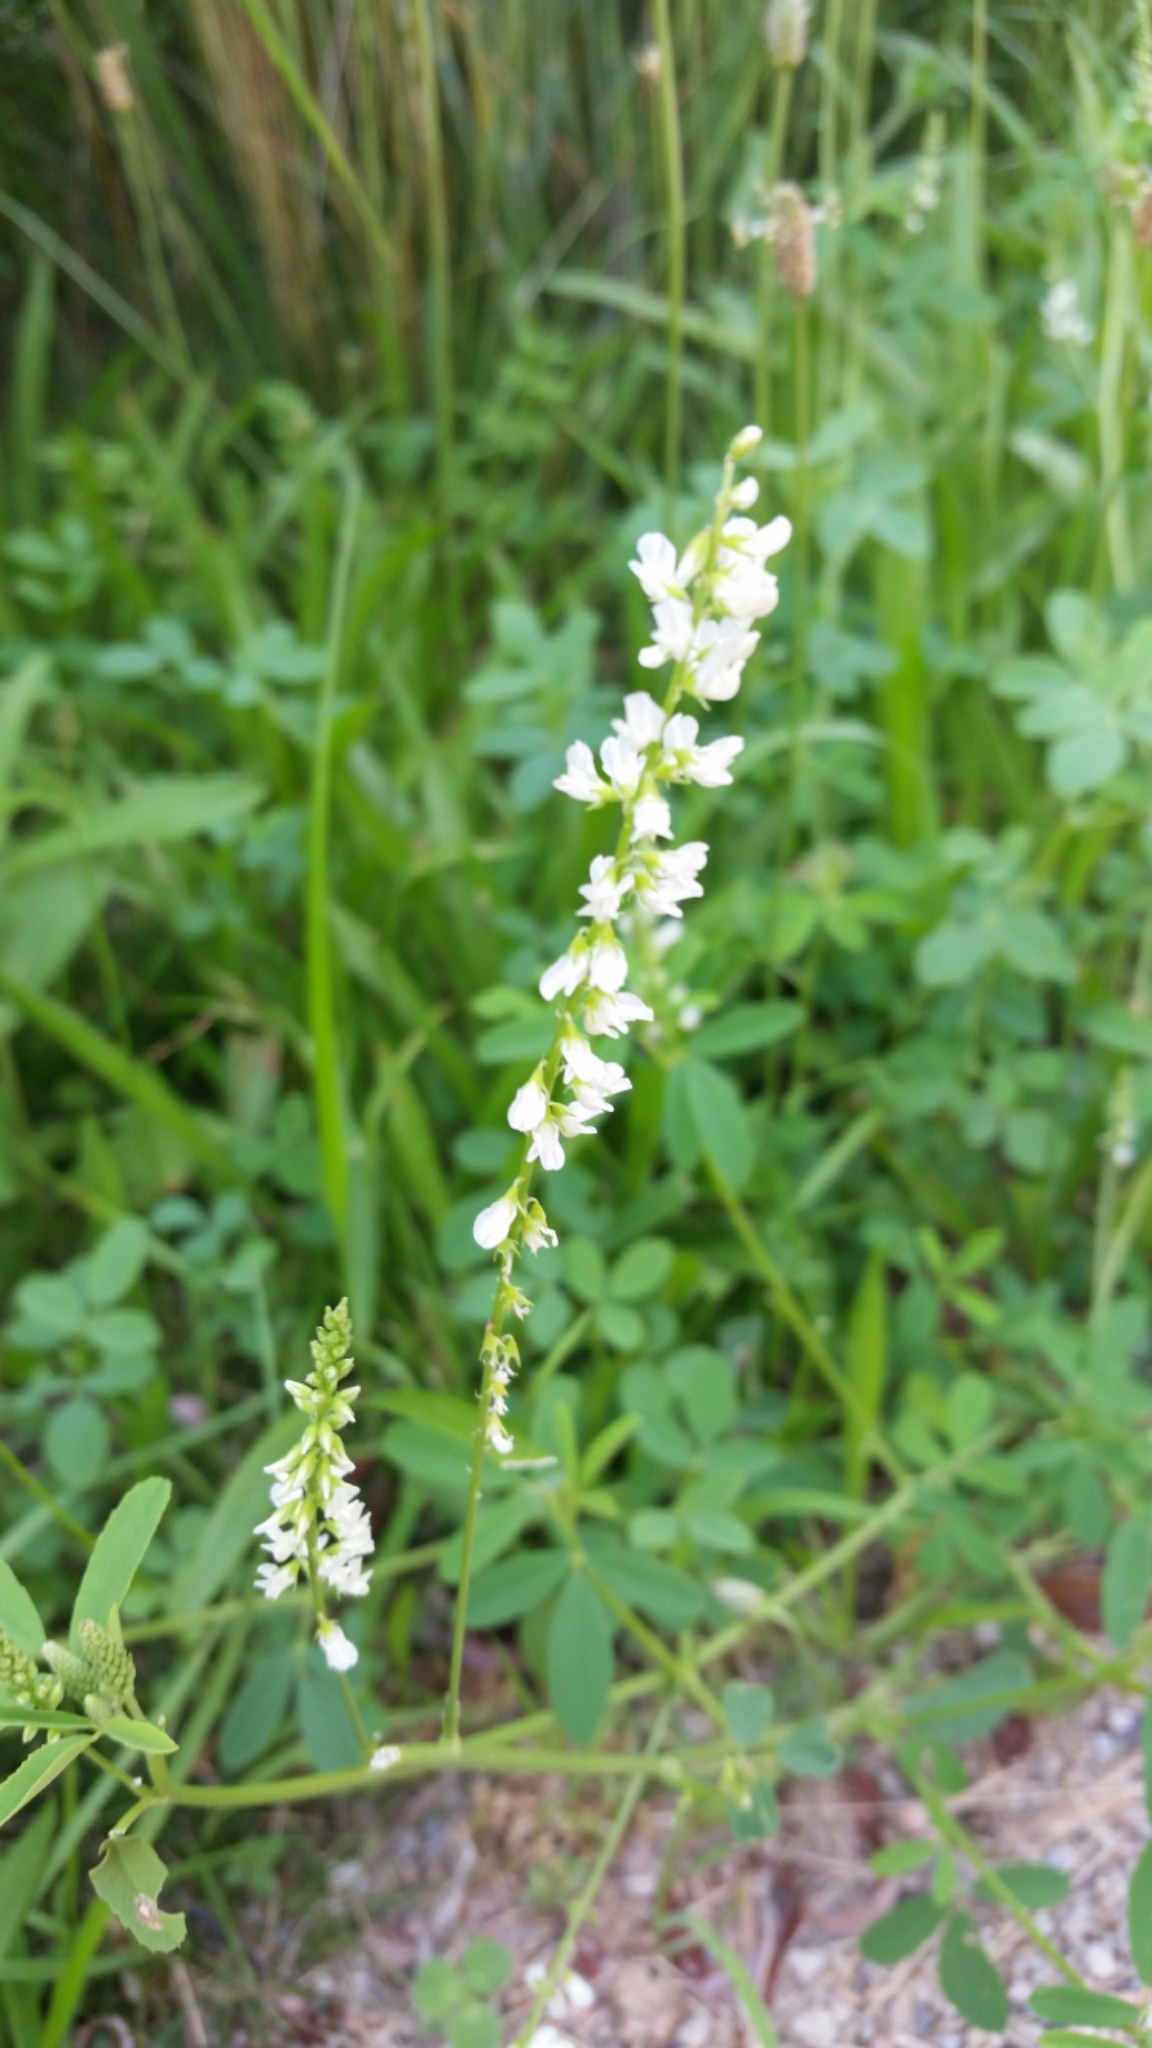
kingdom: Plantae
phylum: Tracheophyta
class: Magnoliopsida
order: Fabales
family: Fabaceae
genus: Melilotus
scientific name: Melilotus albus
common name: White melilot
